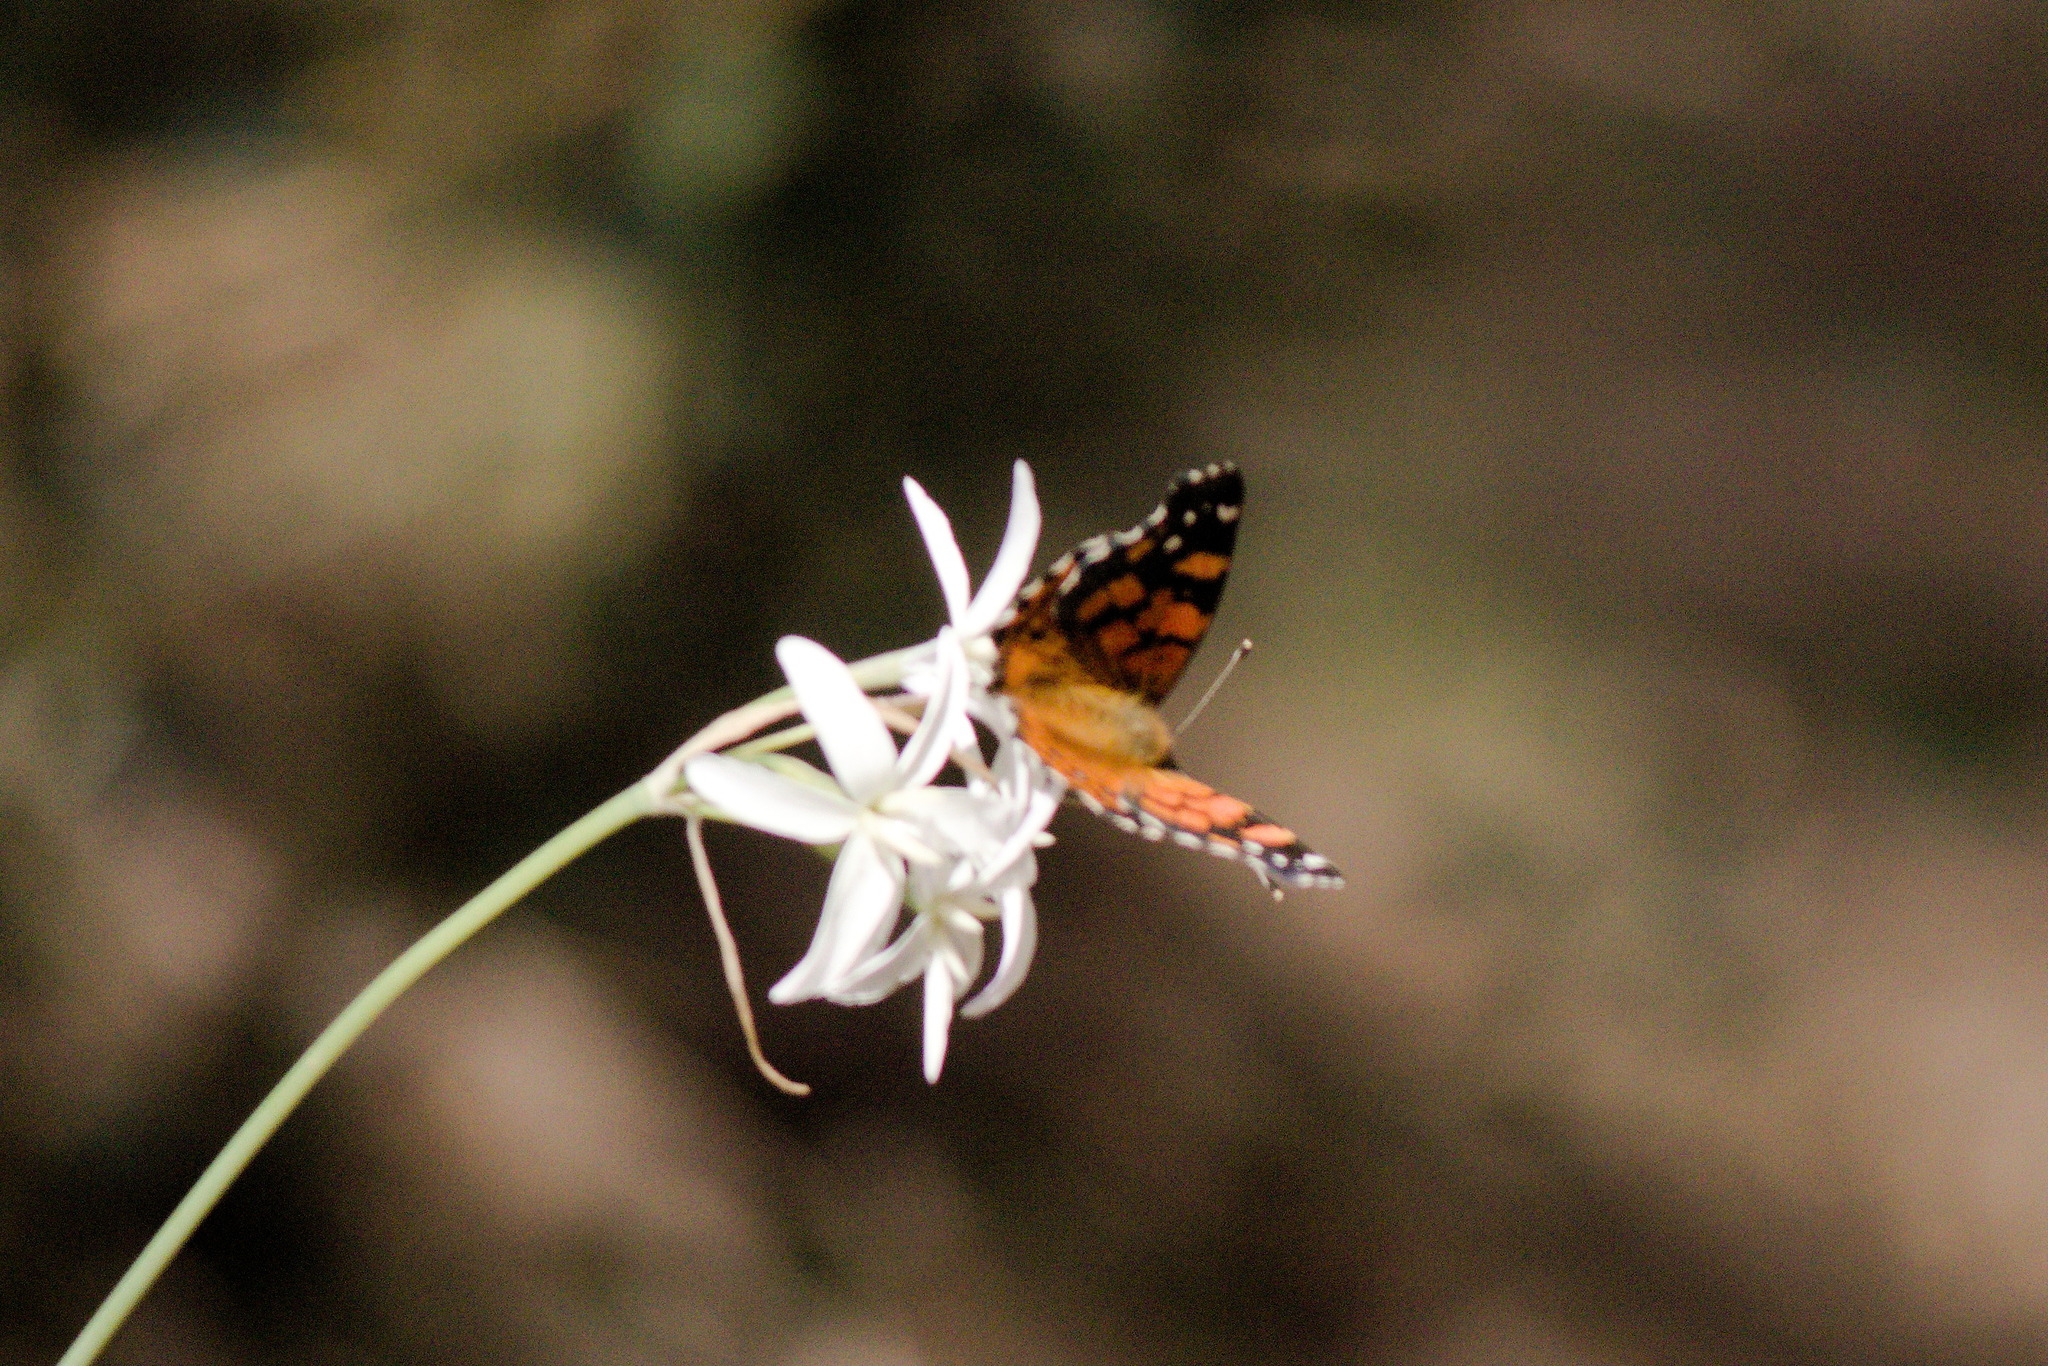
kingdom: Animalia
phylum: Arthropoda
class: Insecta
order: Lepidoptera
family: Nymphalidae
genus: Vanessa
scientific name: Vanessa carye
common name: Subtropical lady
